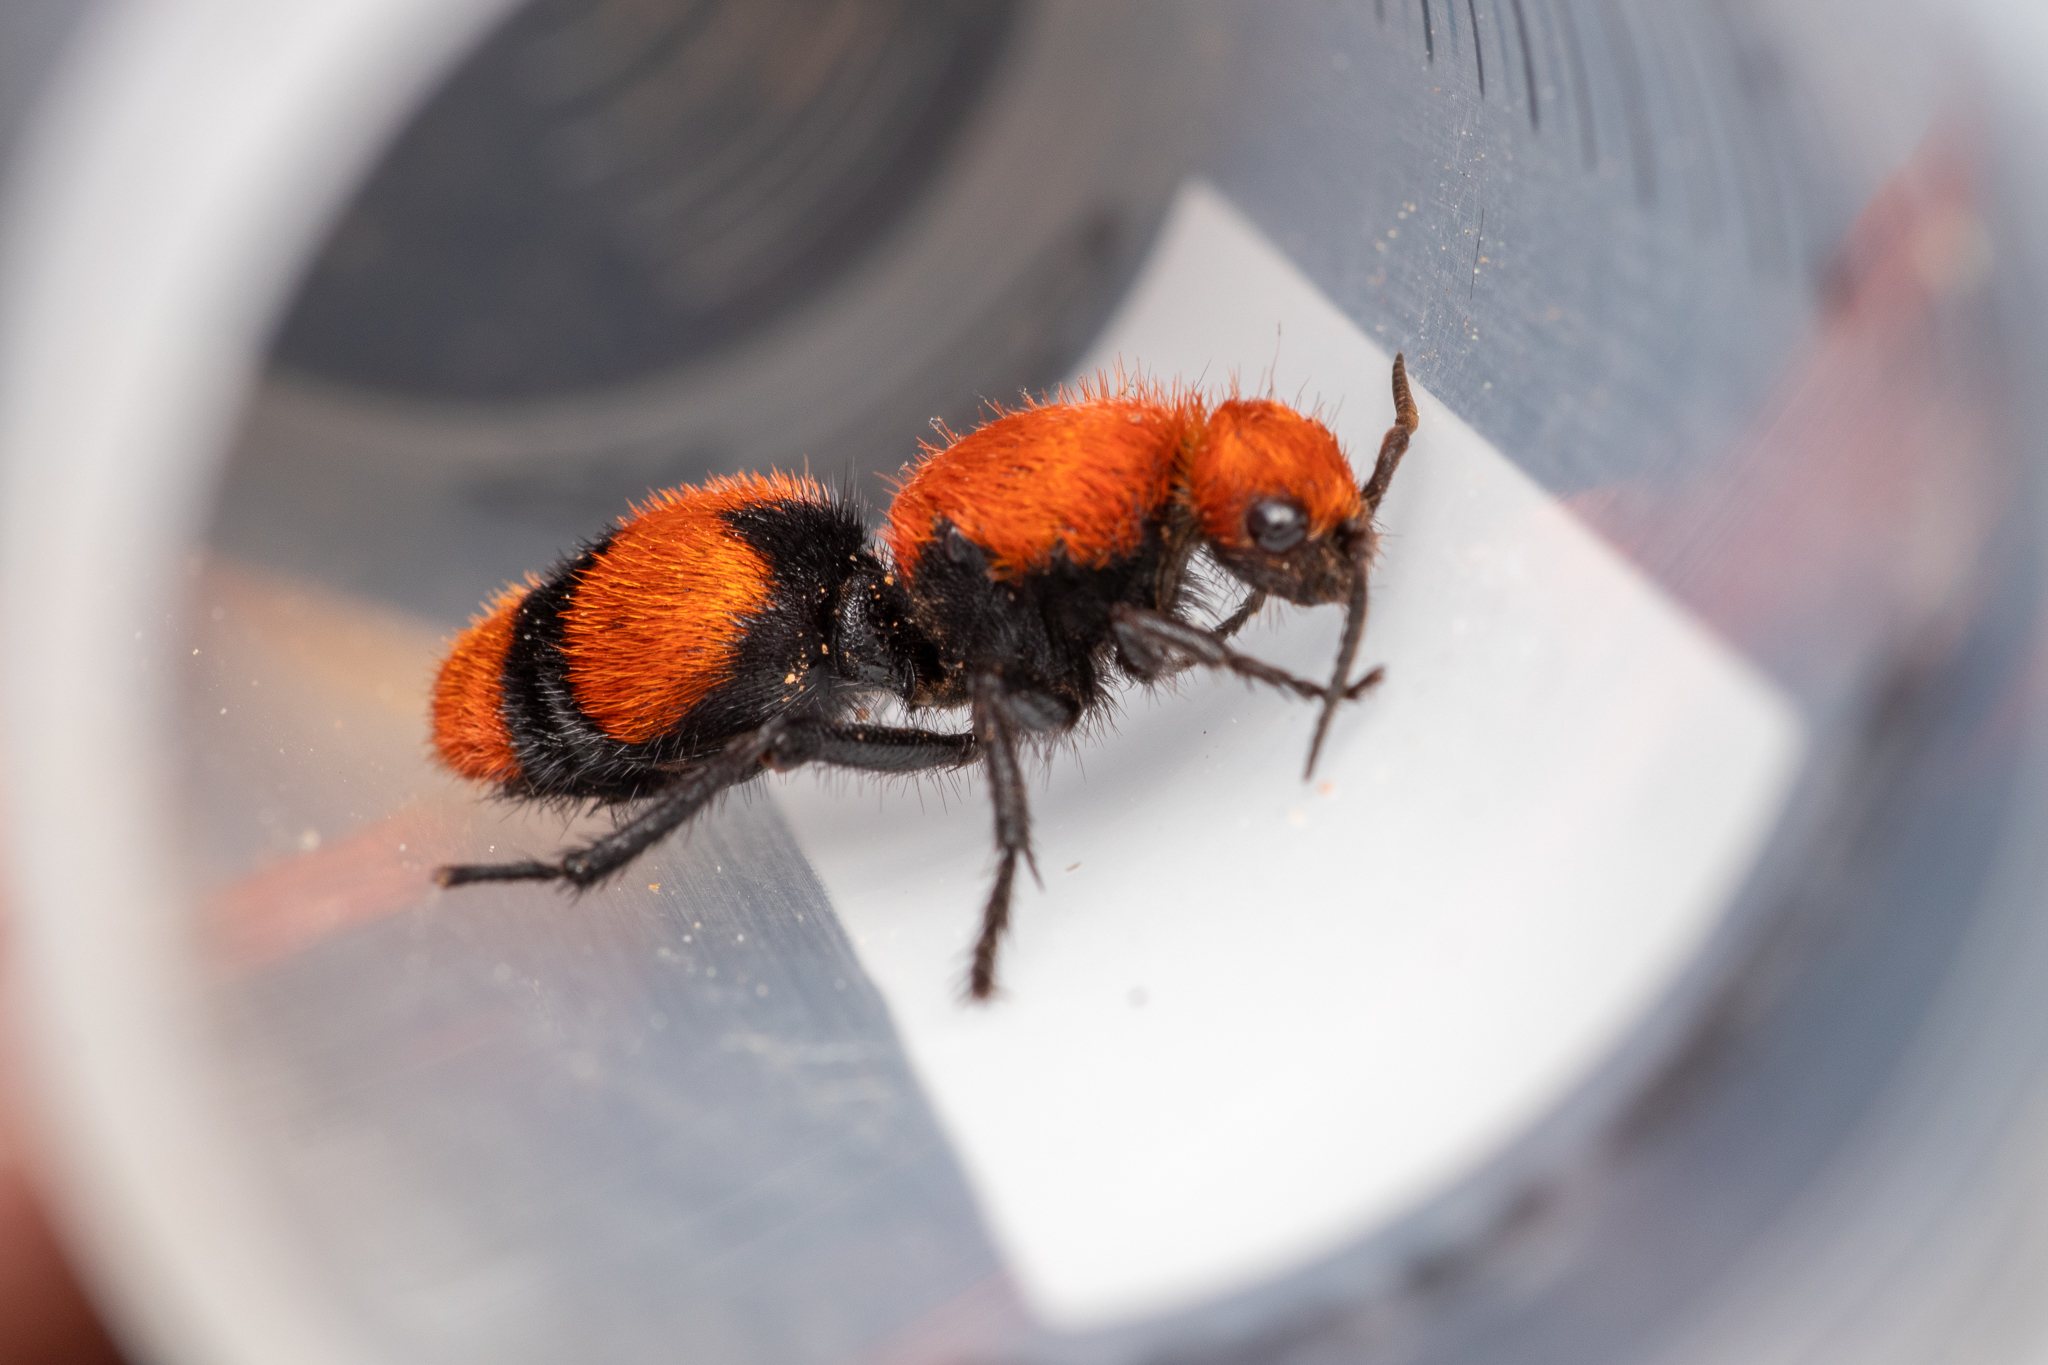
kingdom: Animalia
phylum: Arthropoda
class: Insecta
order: Hymenoptera
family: Mutillidae
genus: Dasymutilla
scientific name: Dasymutilla occidentalis
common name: Common eastern velvet ant
